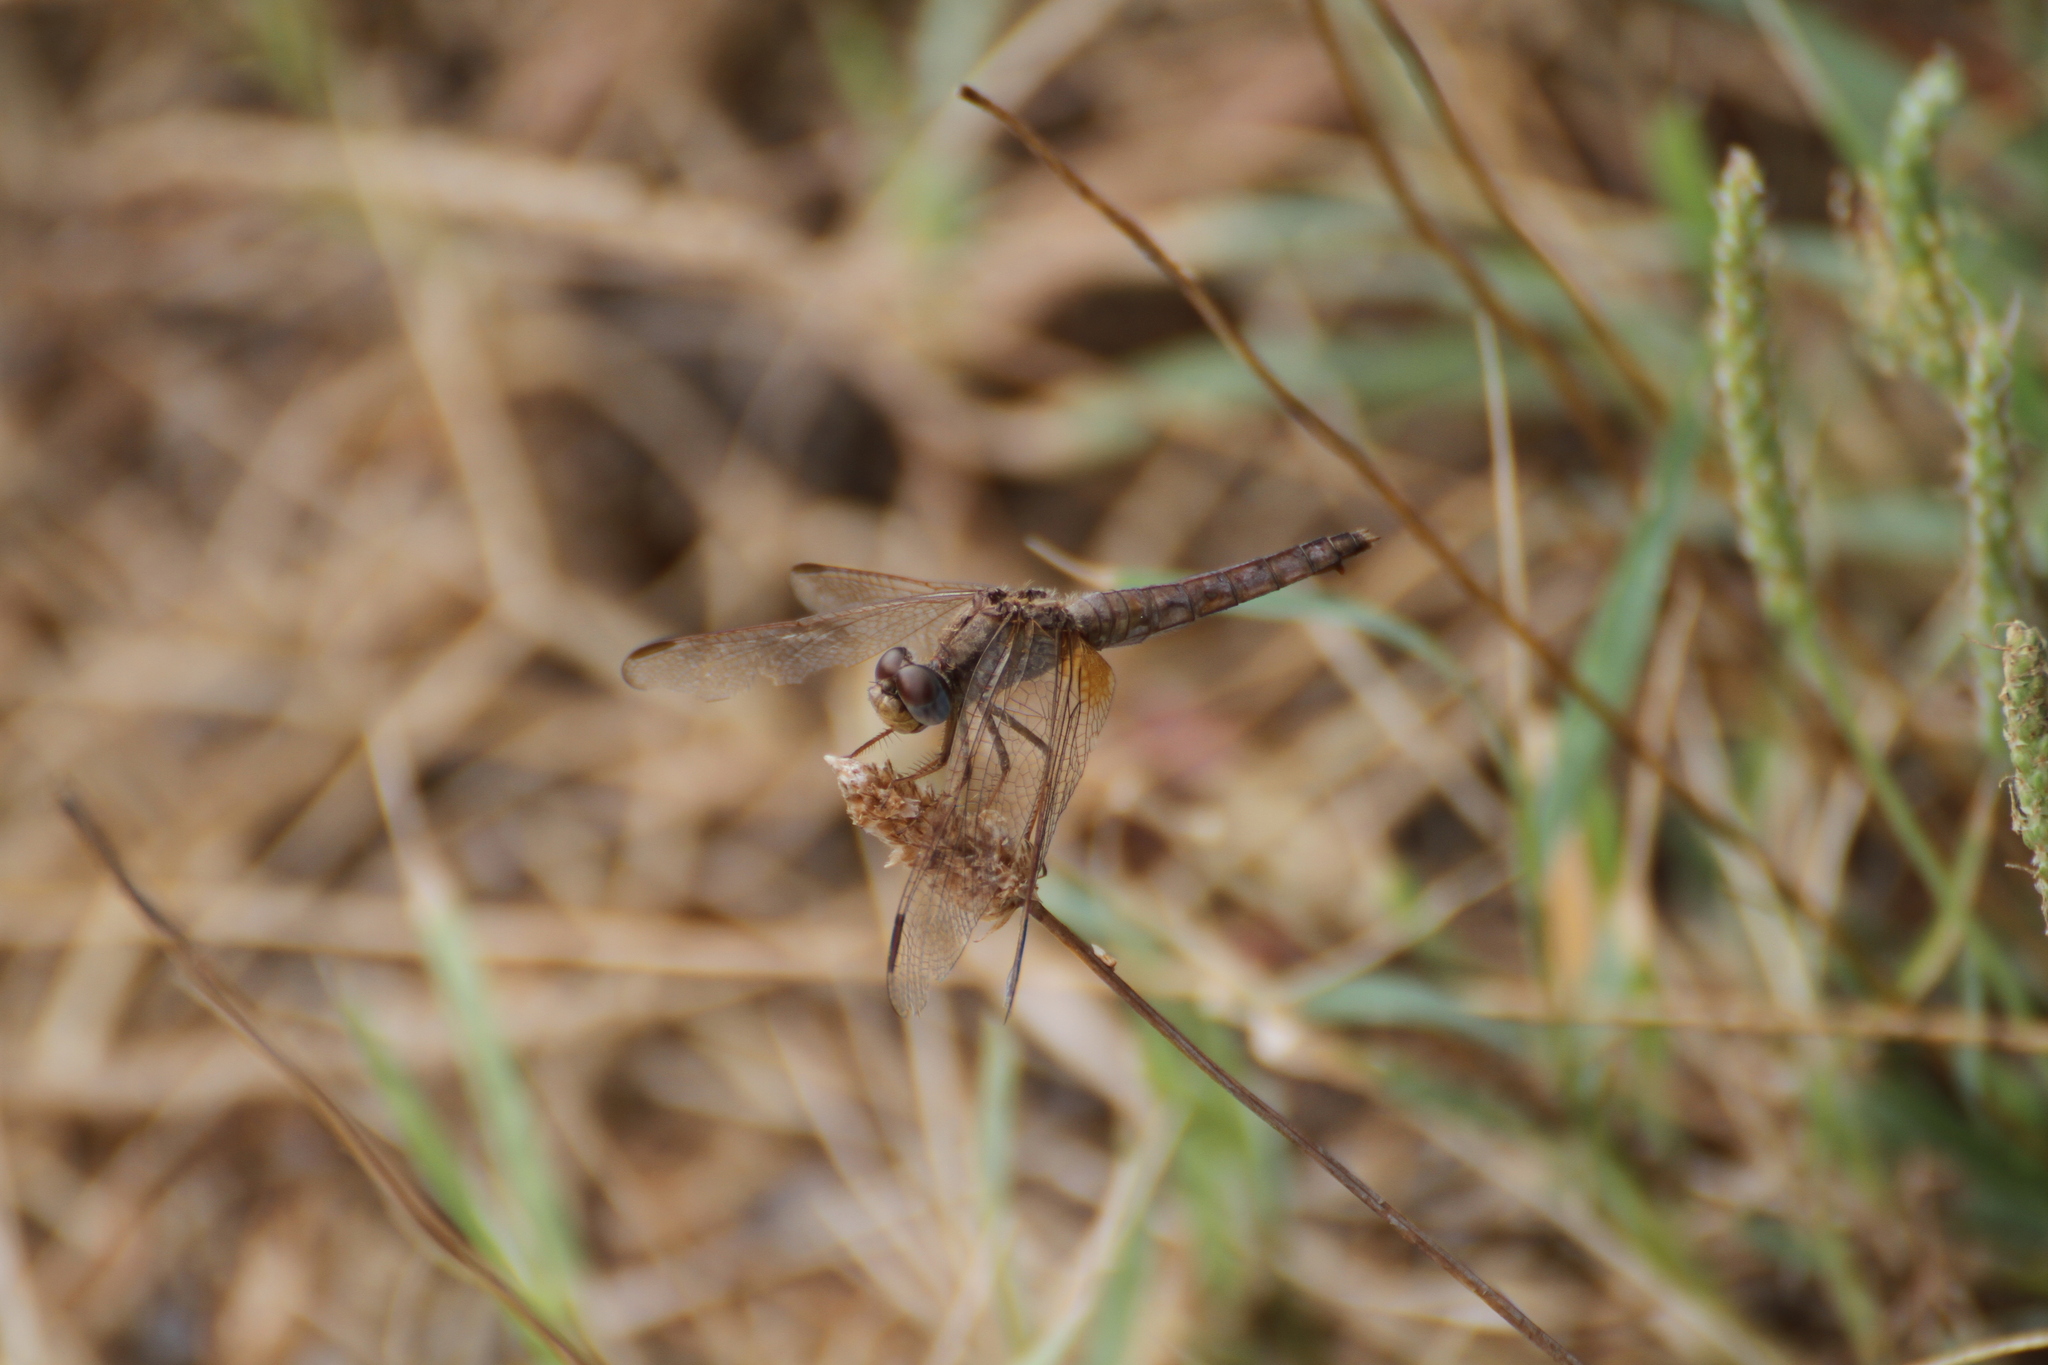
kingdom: Animalia
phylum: Arthropoda
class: Insecta
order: Odonata
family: Libellulidae
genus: Crocothemis
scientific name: Crocothemis erythraea
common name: Scarlet dragonfly
